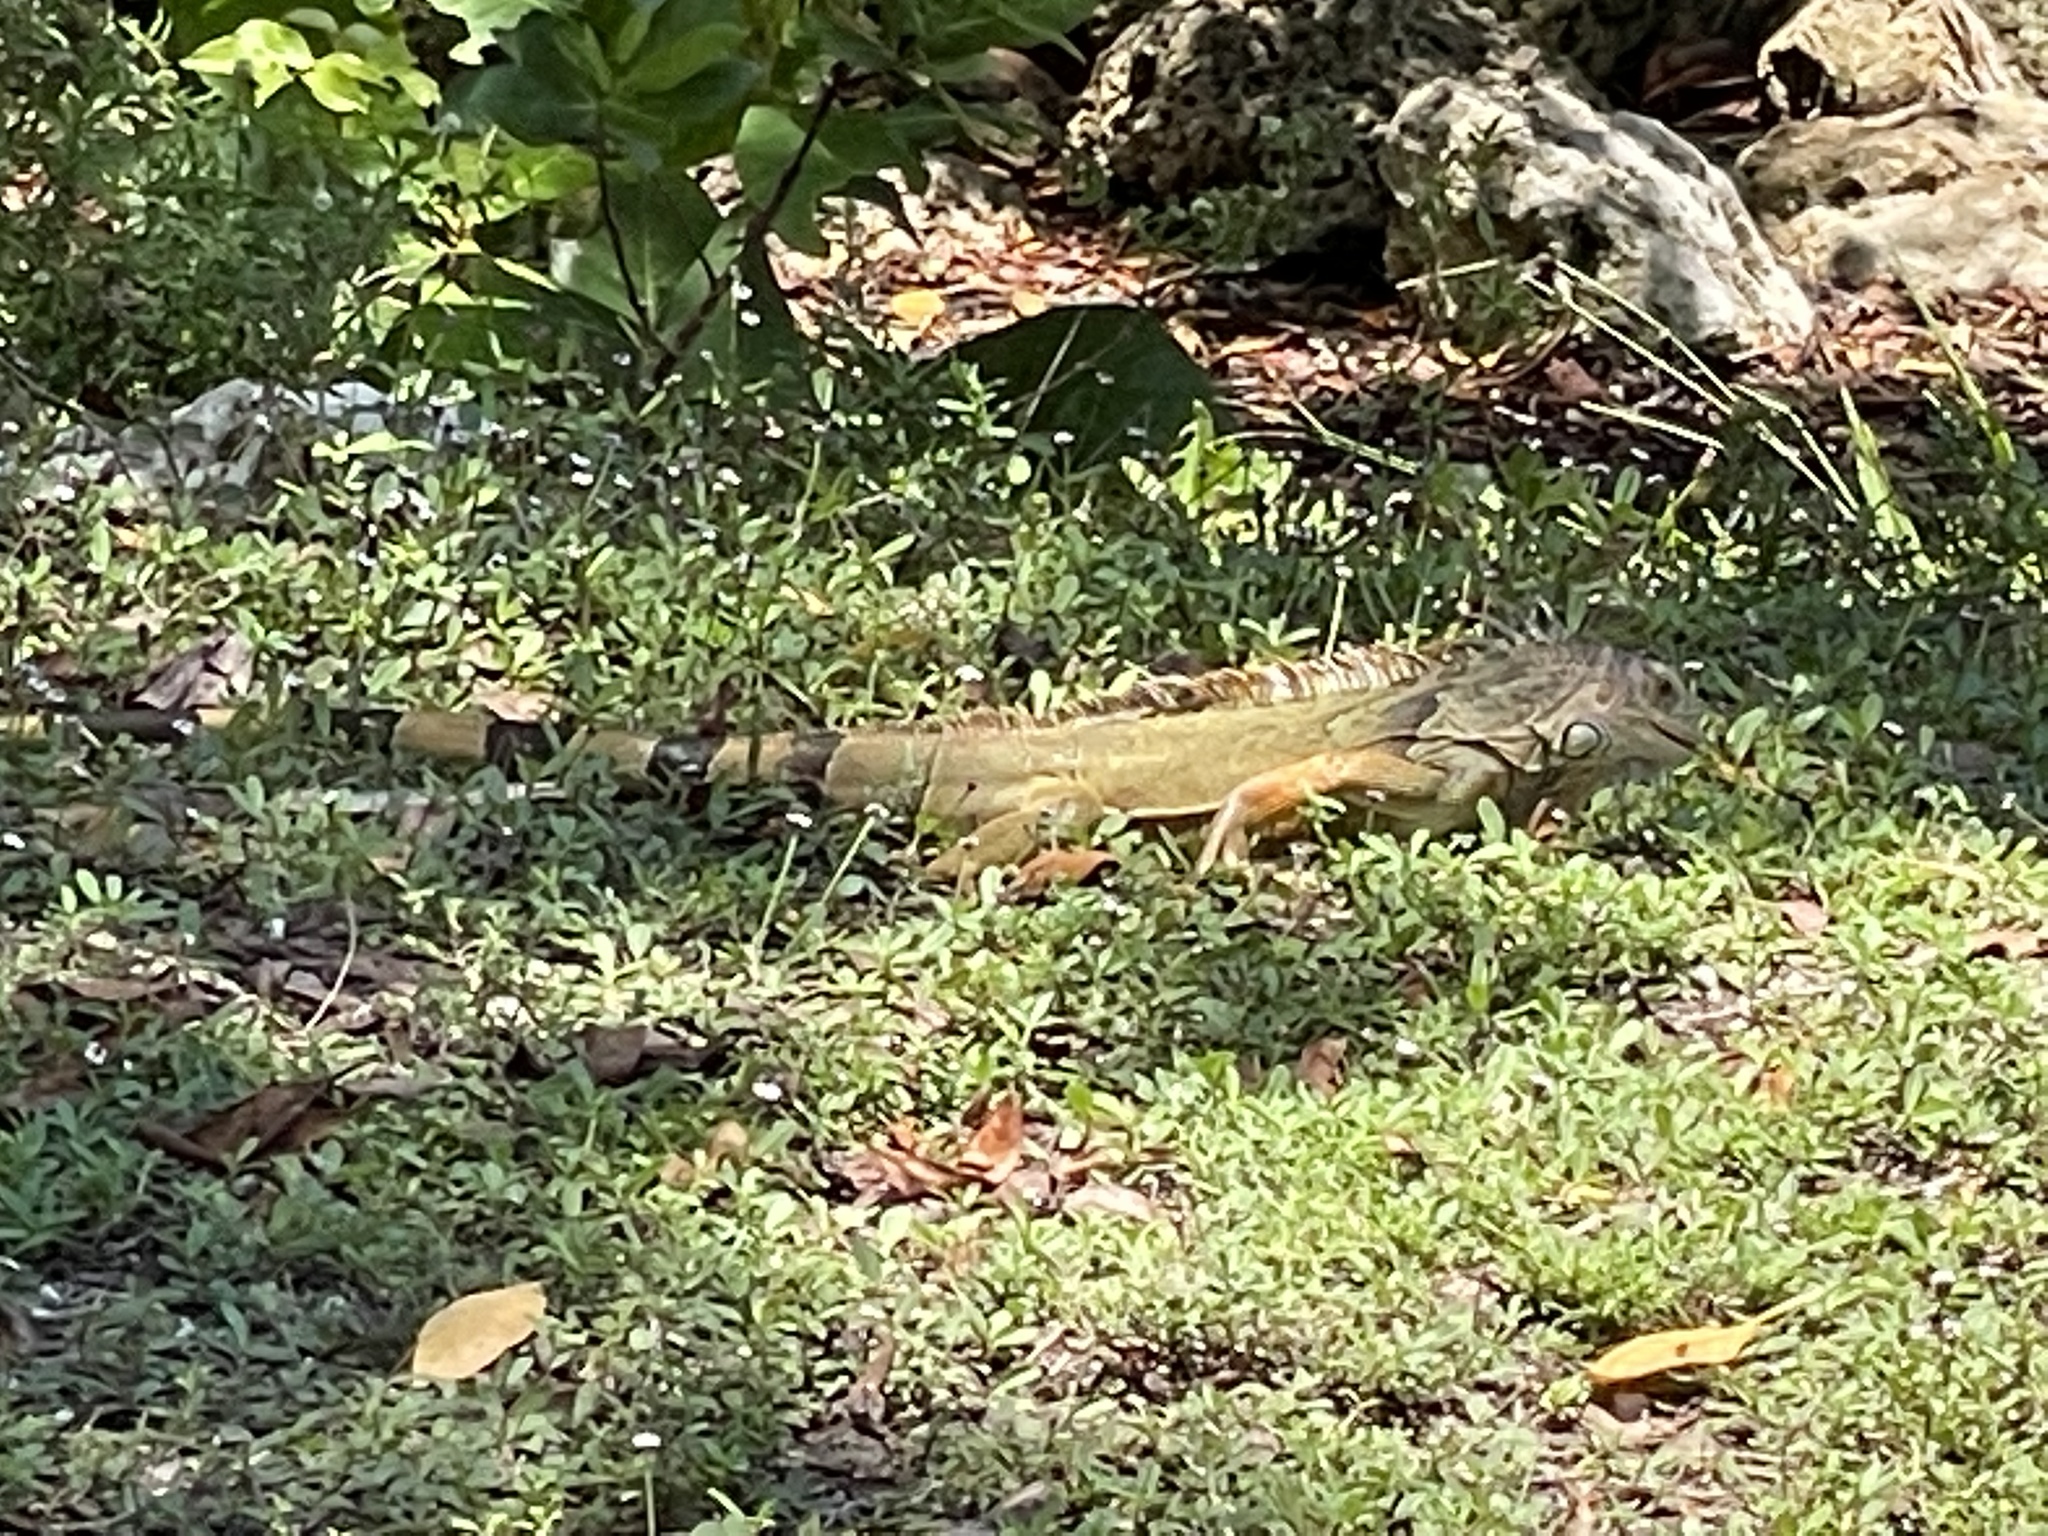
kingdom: Animalia
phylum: Chordata
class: Squamata
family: Iguanidae
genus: Iguana
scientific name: Iguana iguana
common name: Green iguana
